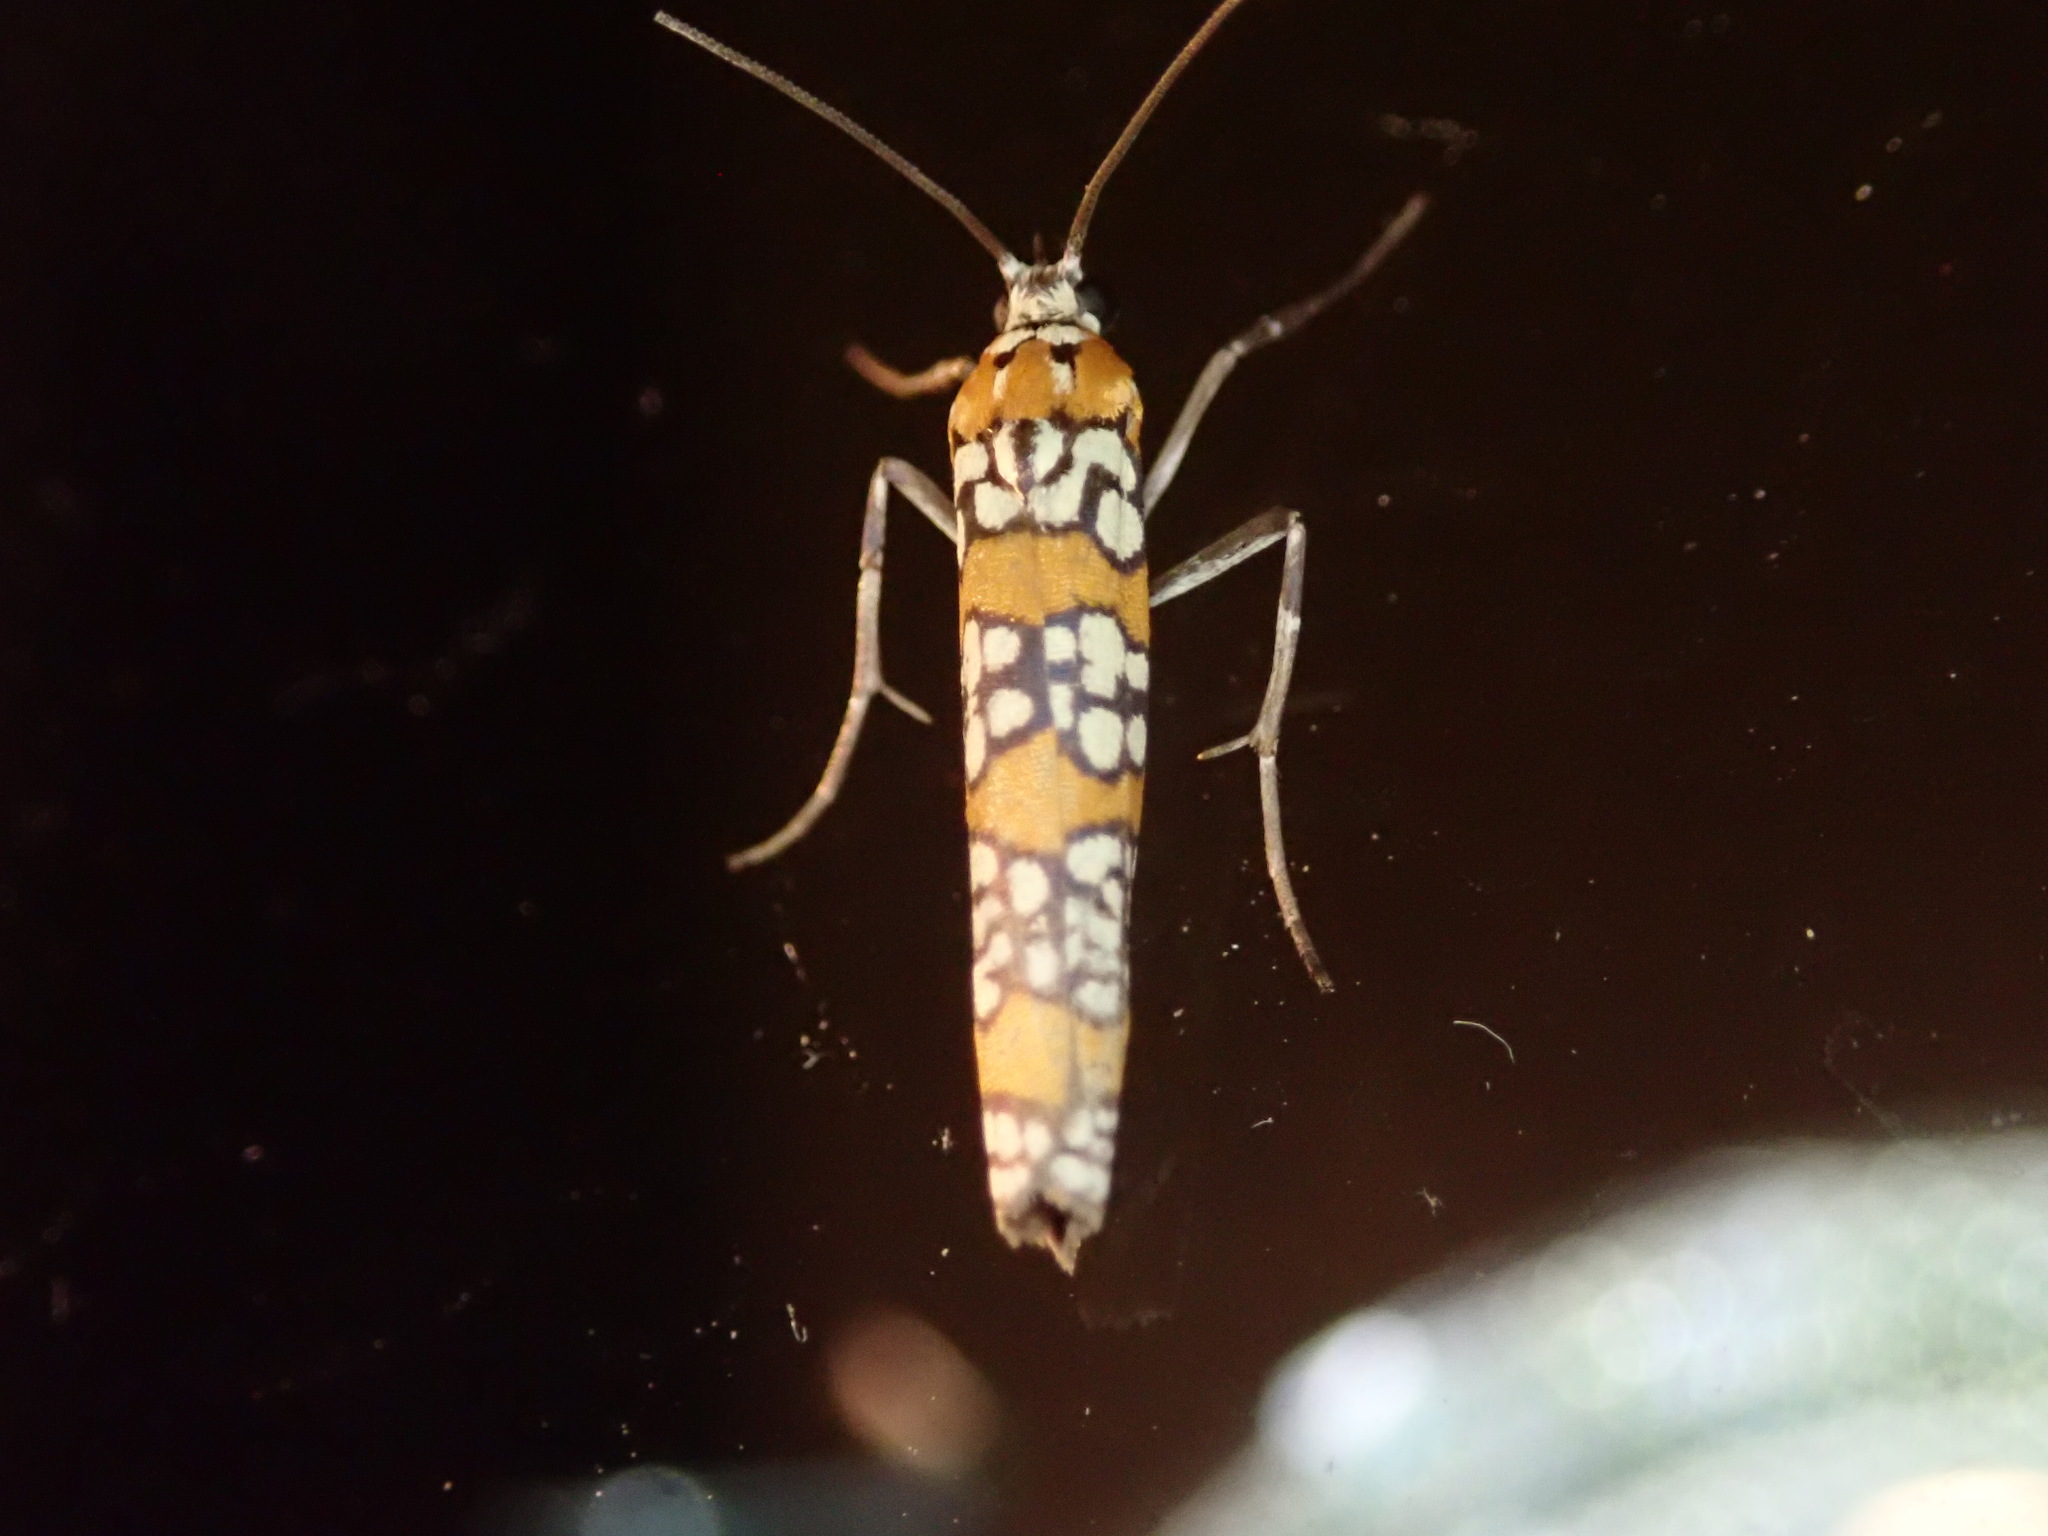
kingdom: Animalia
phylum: Arthropoda
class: Insecta
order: Lepidoptera
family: Attevidae
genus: Atteva
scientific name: Atteva punctella
